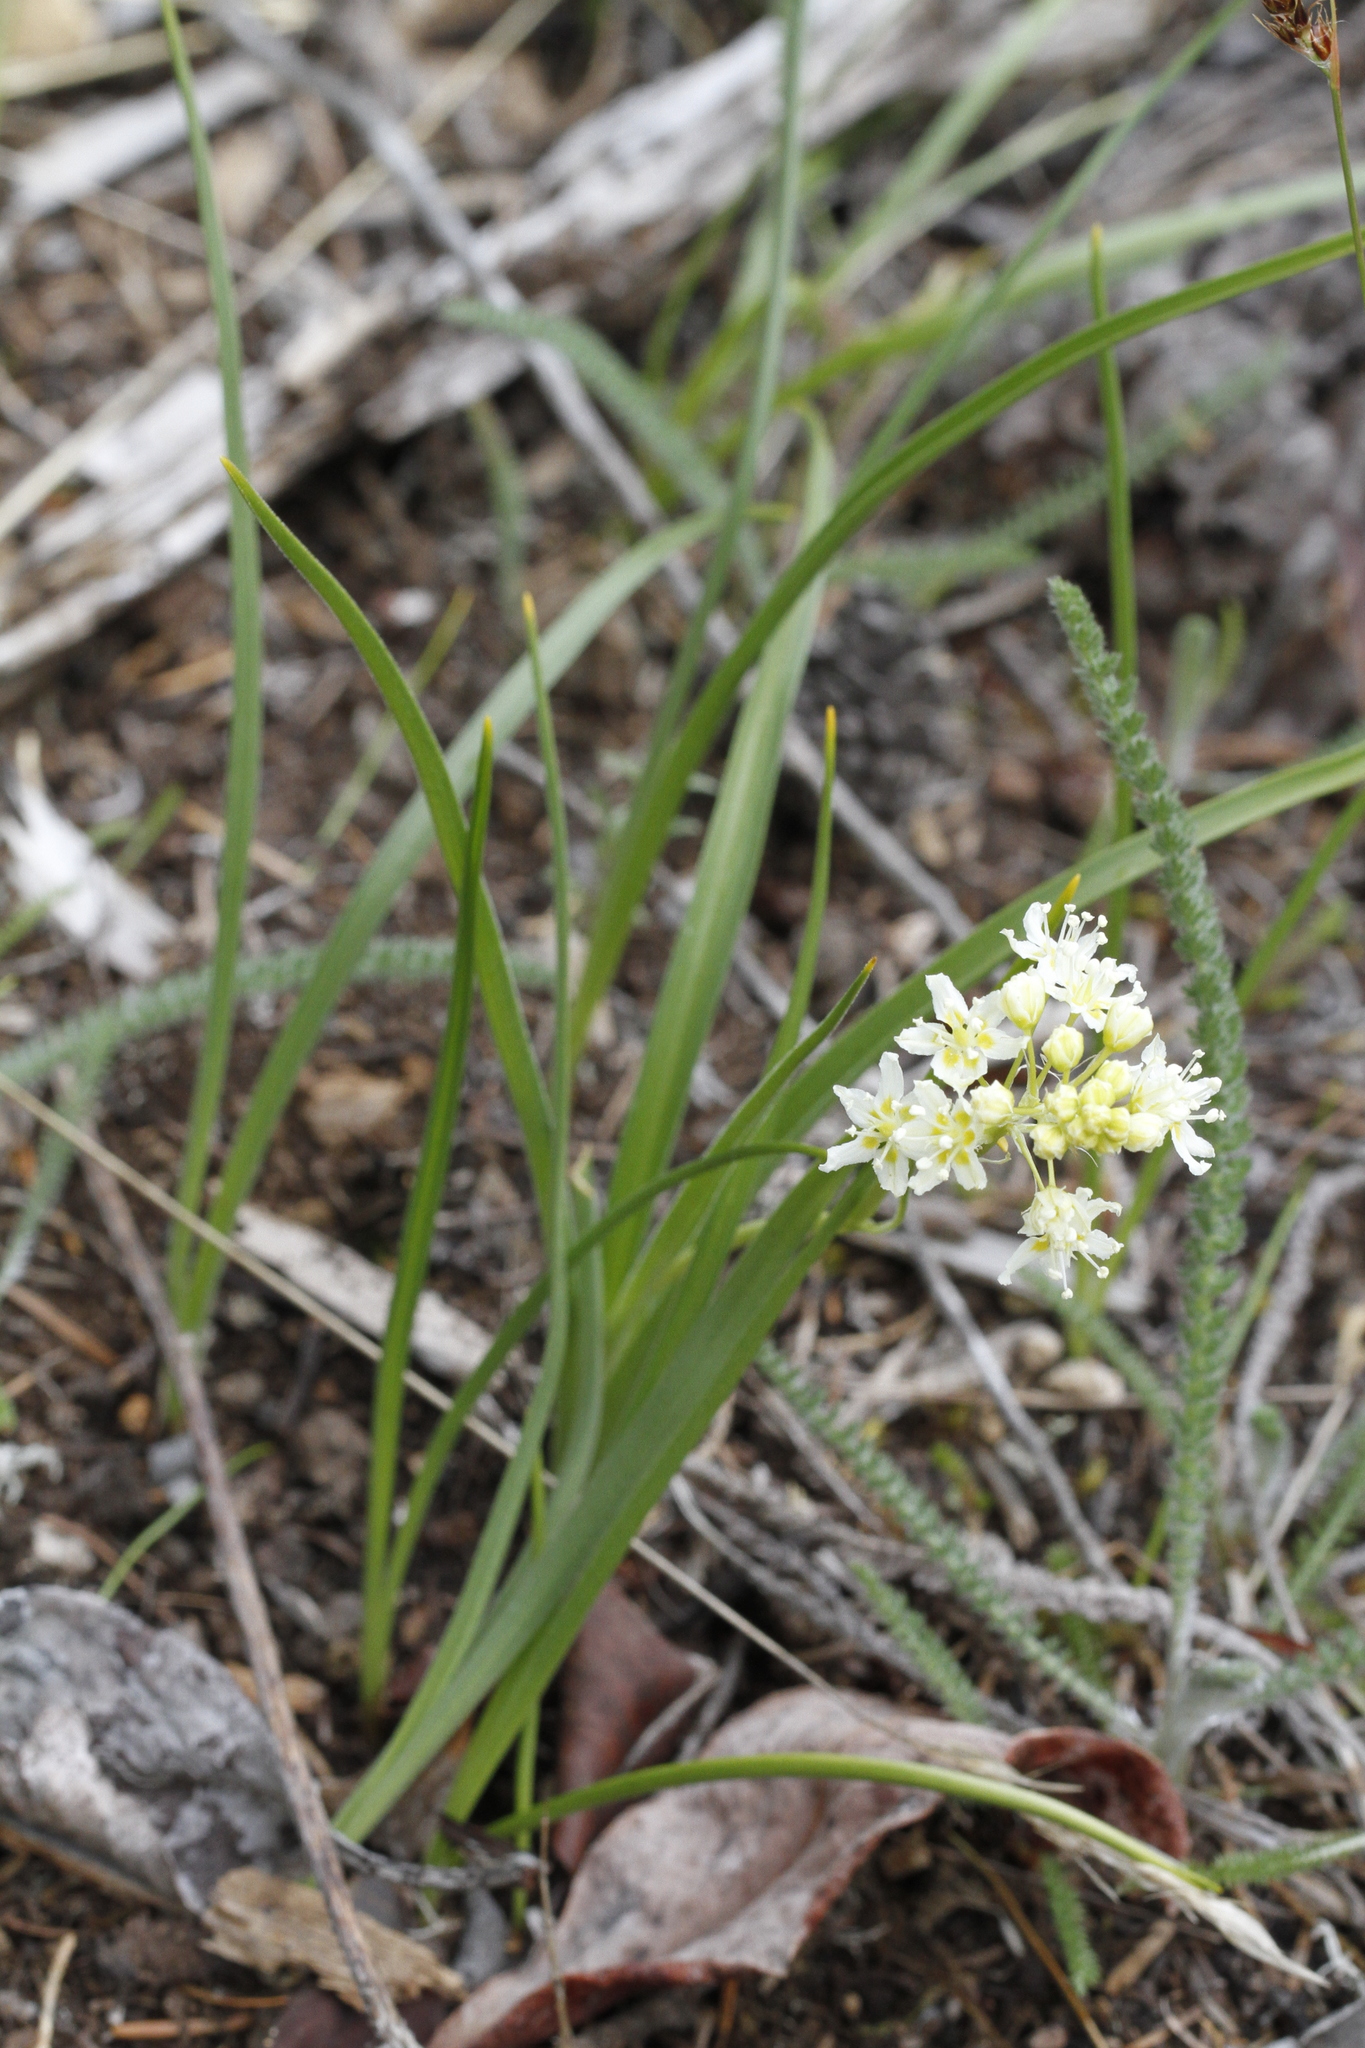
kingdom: Plantae
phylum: Tracheophyta
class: Liliopsida
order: Liliales
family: Melanthiaceae
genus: Toxicoscordion
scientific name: Toxicoscordion venenosum
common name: Meadow death camas
